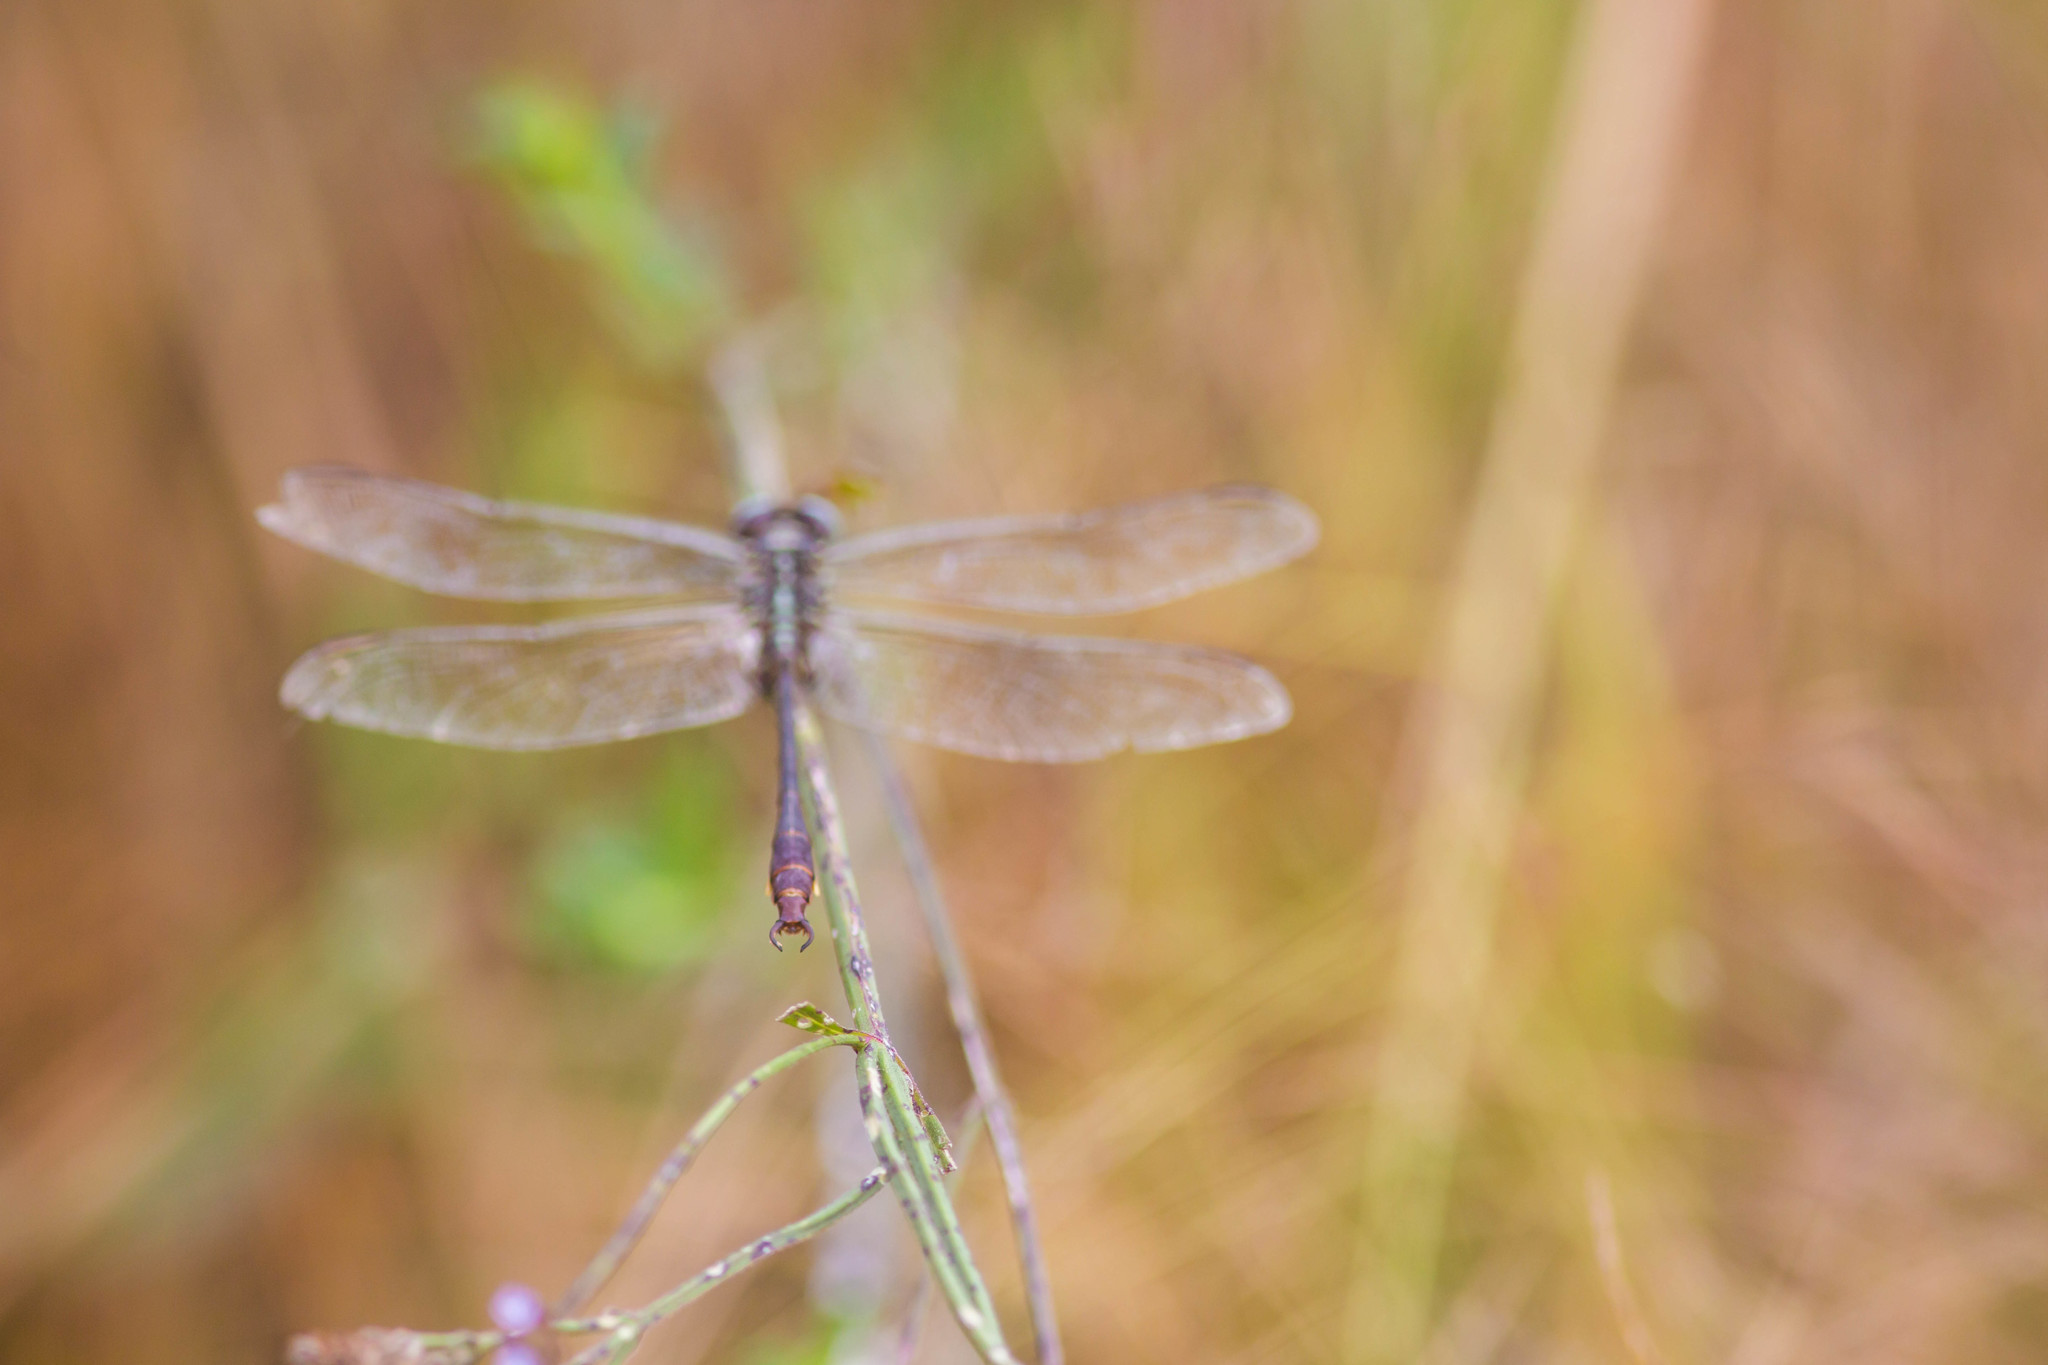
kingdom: Animalia
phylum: Arthropoda
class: Insecta
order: Odonata
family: Gomphidae
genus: Aphylla
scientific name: Aphylla williamsoni
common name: Two-striped forceptail
